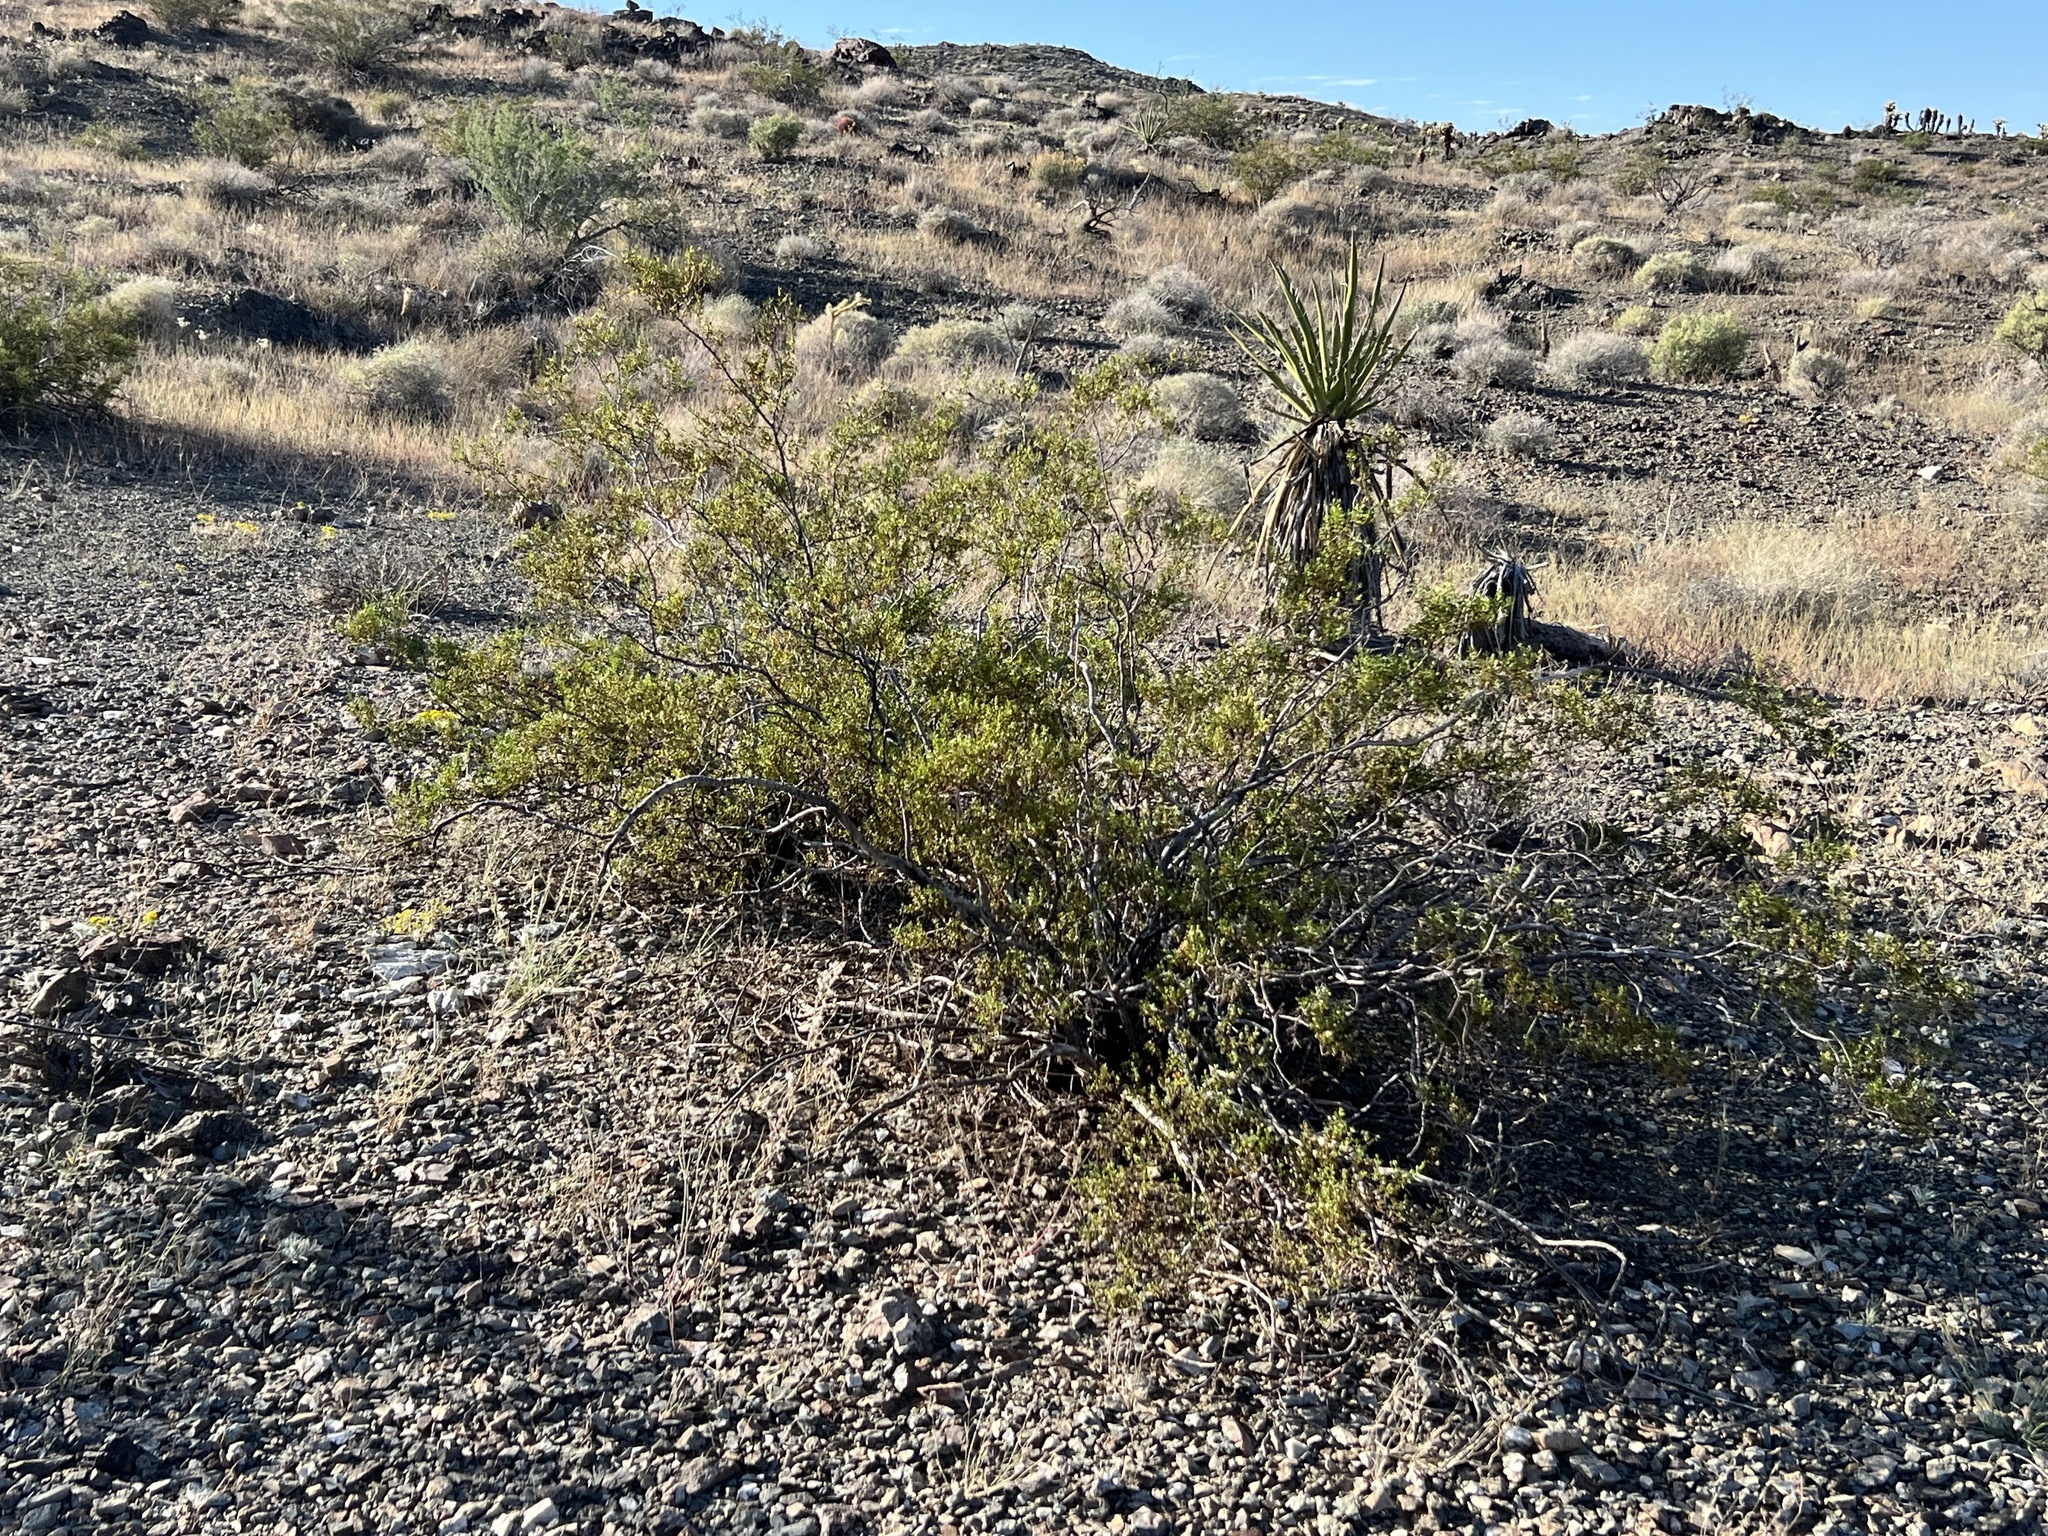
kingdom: Plantae
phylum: Tracheophyta
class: Magnoliopsida
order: Zygophyllales
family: Zygophyllaceae
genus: Larrea
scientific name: Larrea tridentata
